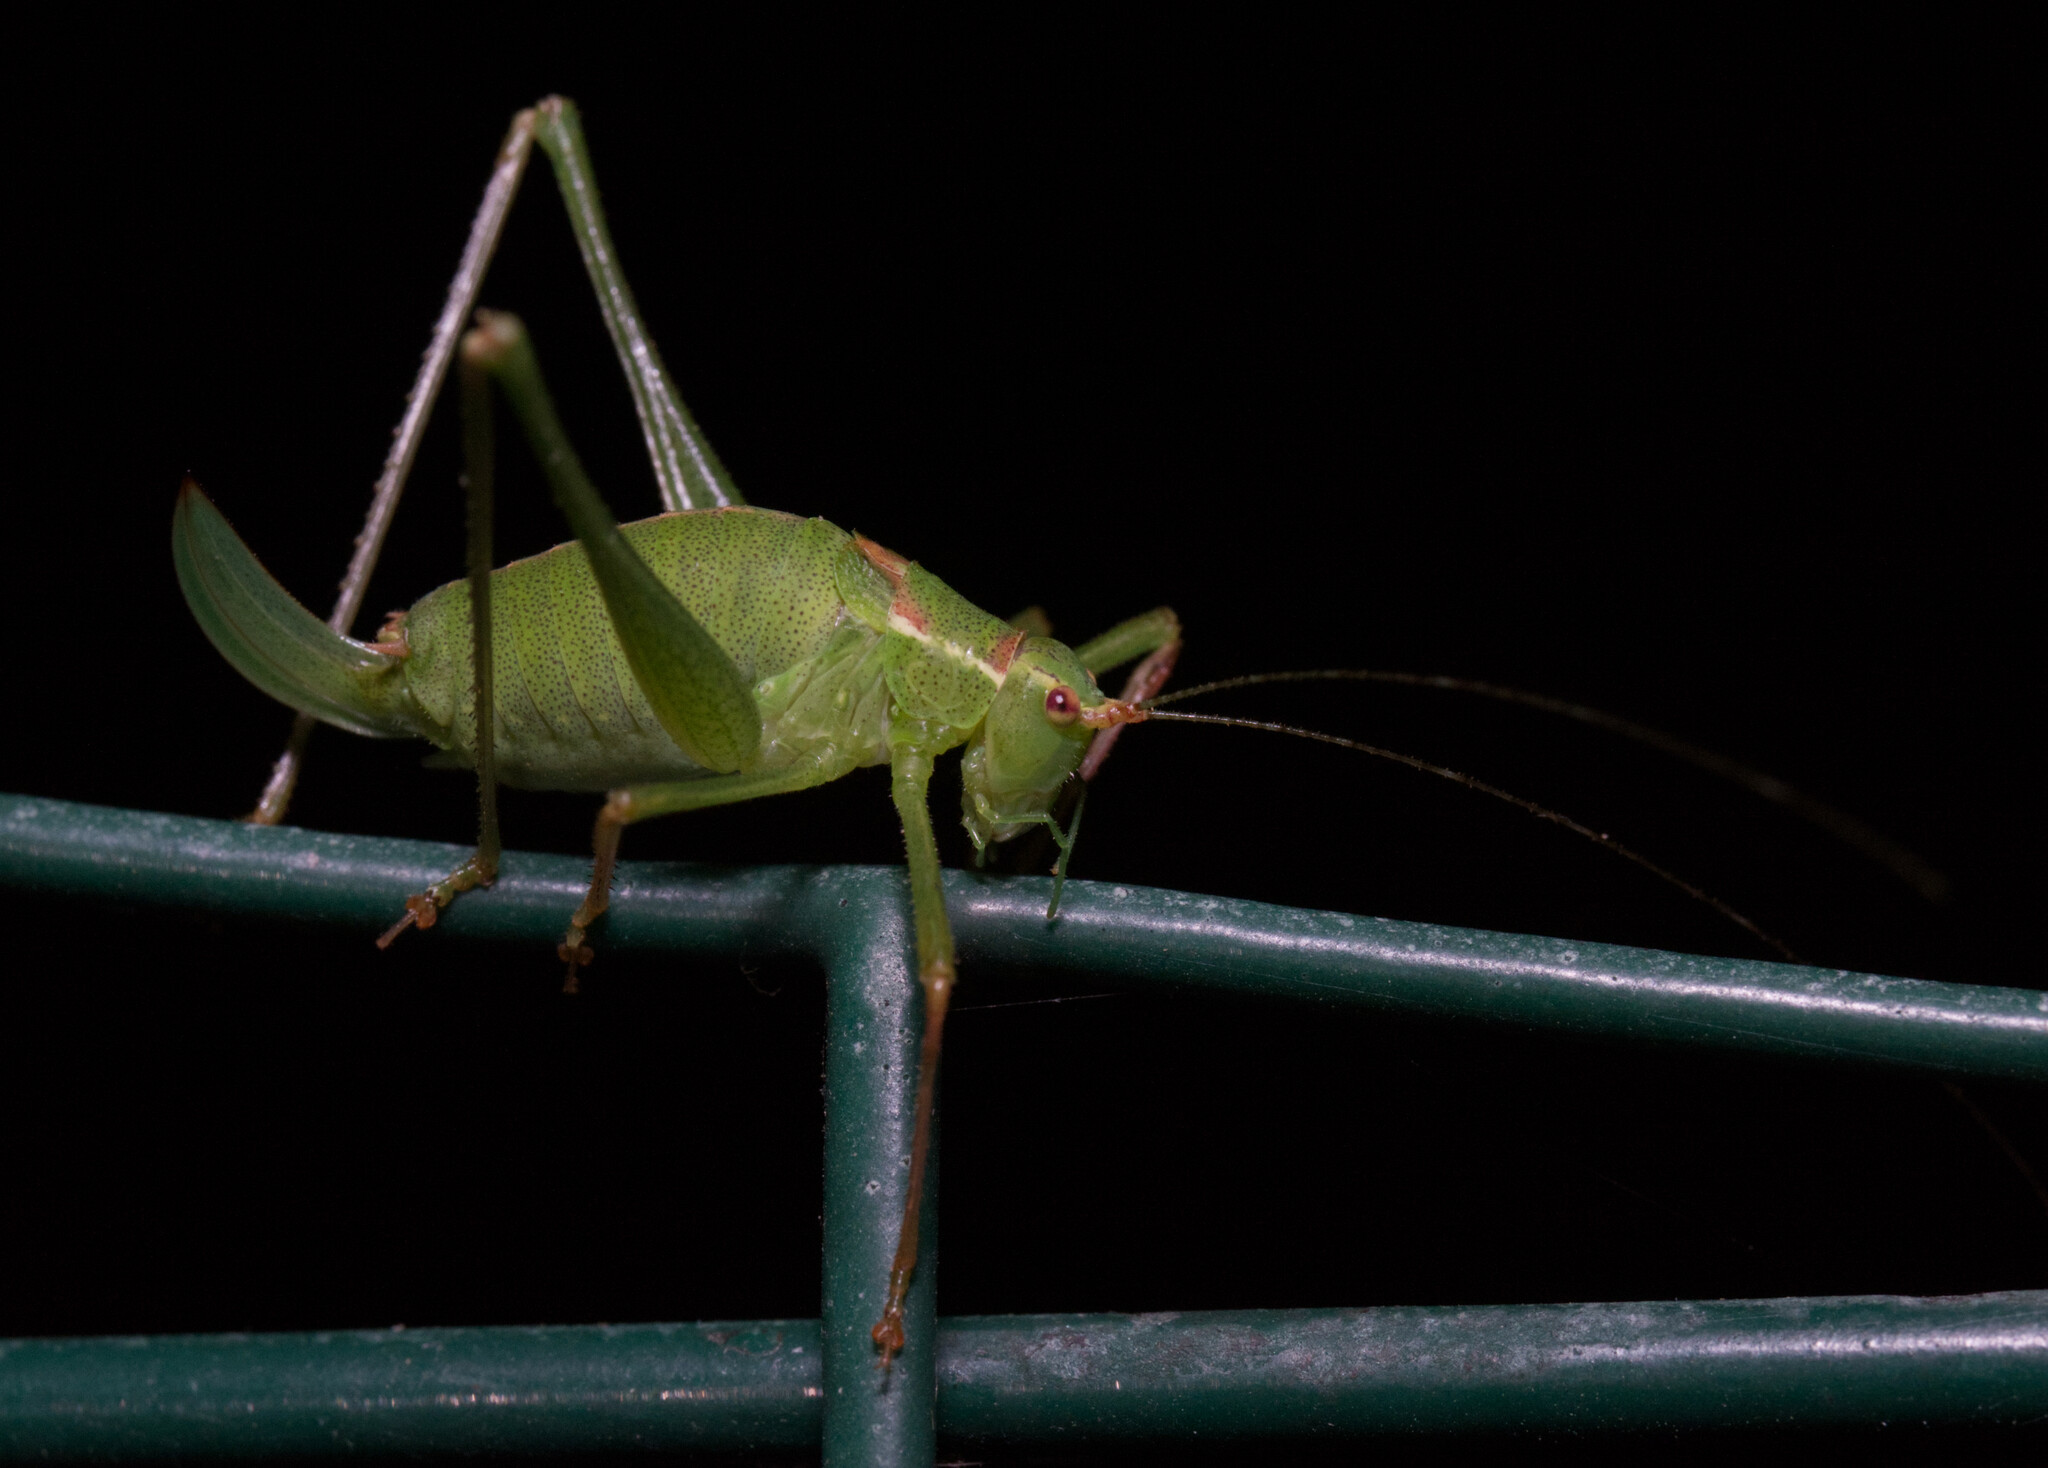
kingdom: Animalia
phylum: Arthropoda
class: Insecta
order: Orthoptera
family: Tettigoniidae
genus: Leptophyes
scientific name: Leptophyes punctatissima
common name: Speckled bush-cricket
